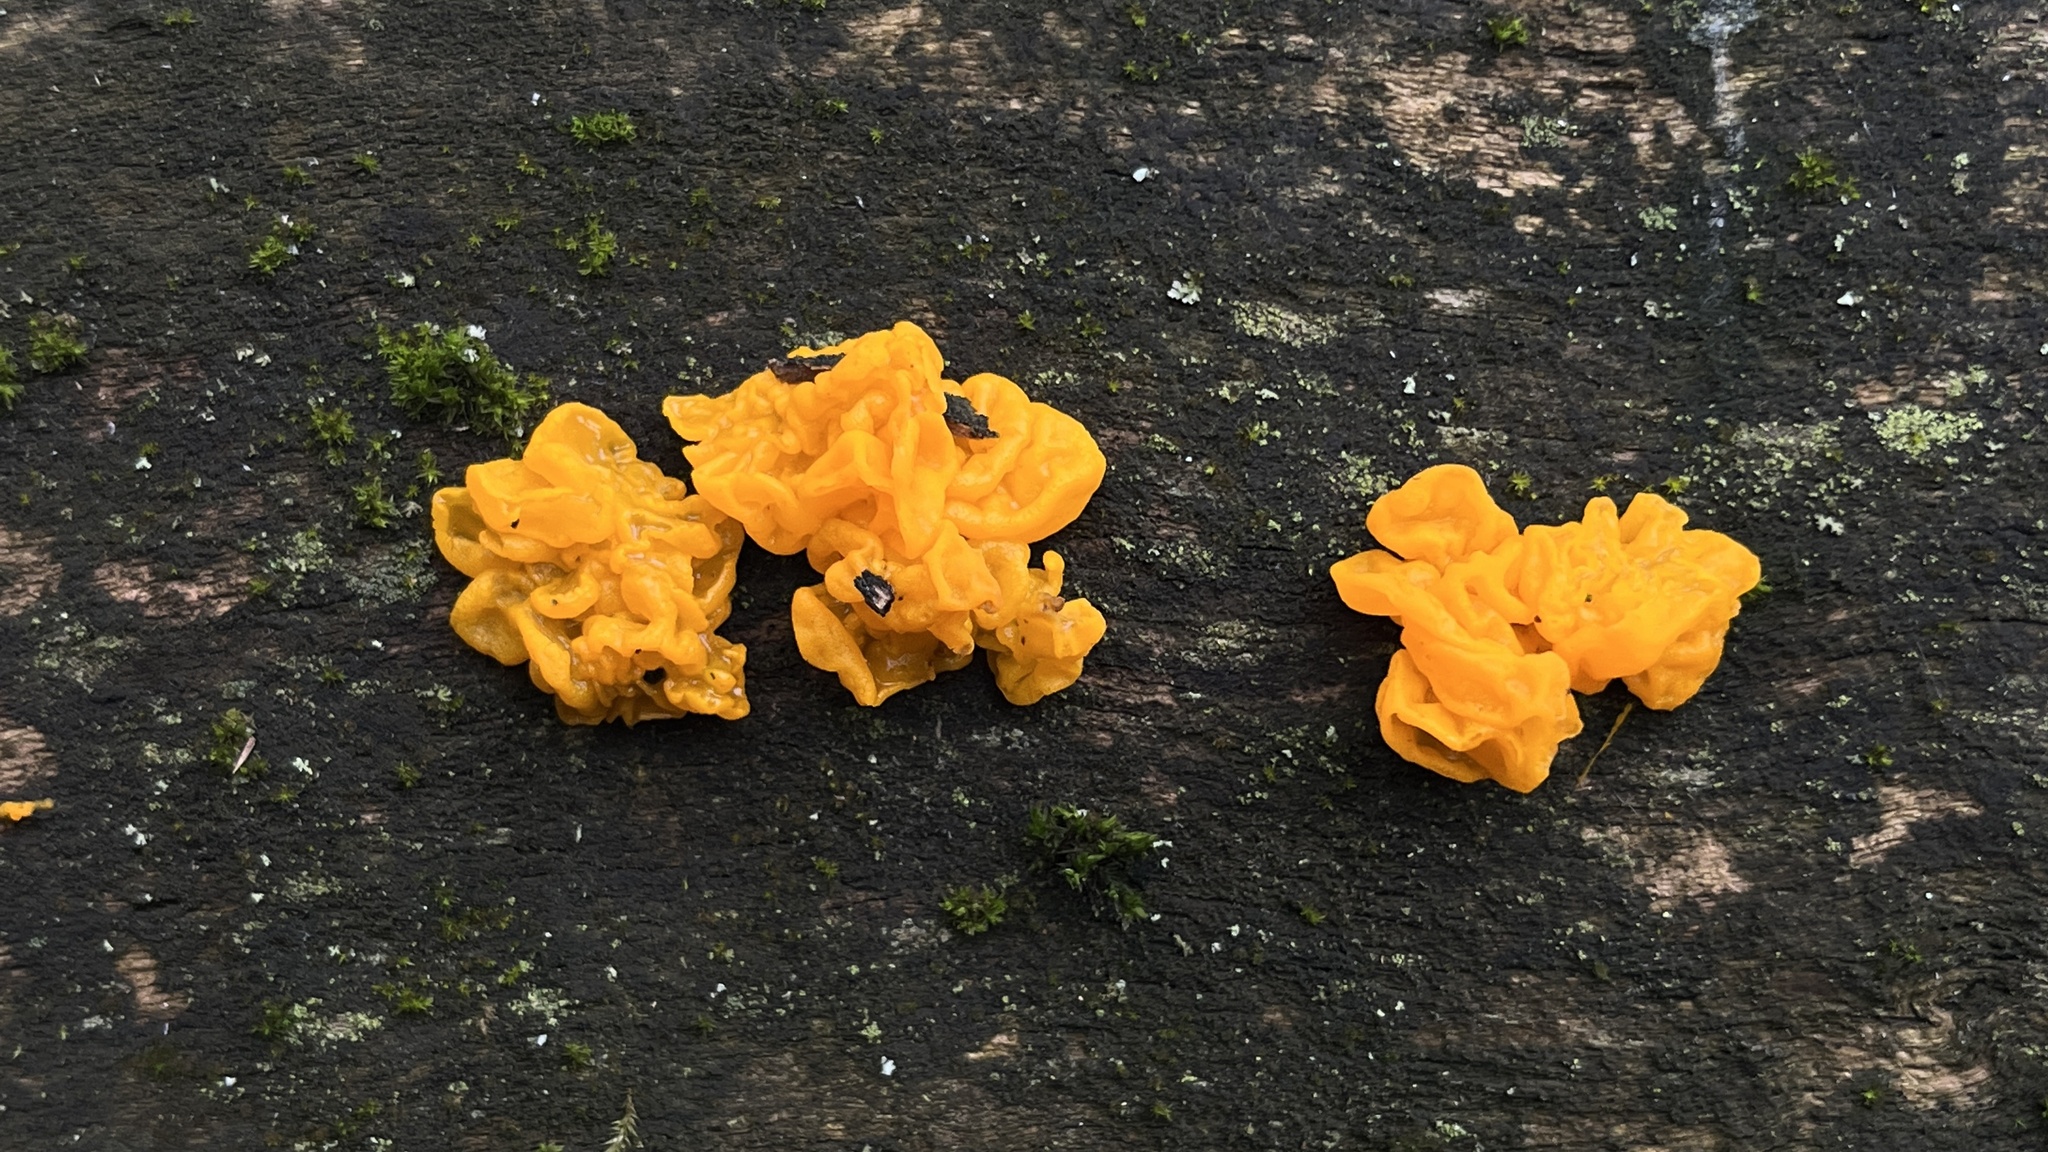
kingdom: Fungi
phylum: Basidiomycota
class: Tremellomycetes
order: Tremellales
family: Tremellaceae
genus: Tremella
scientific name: Tremella mesenterica
